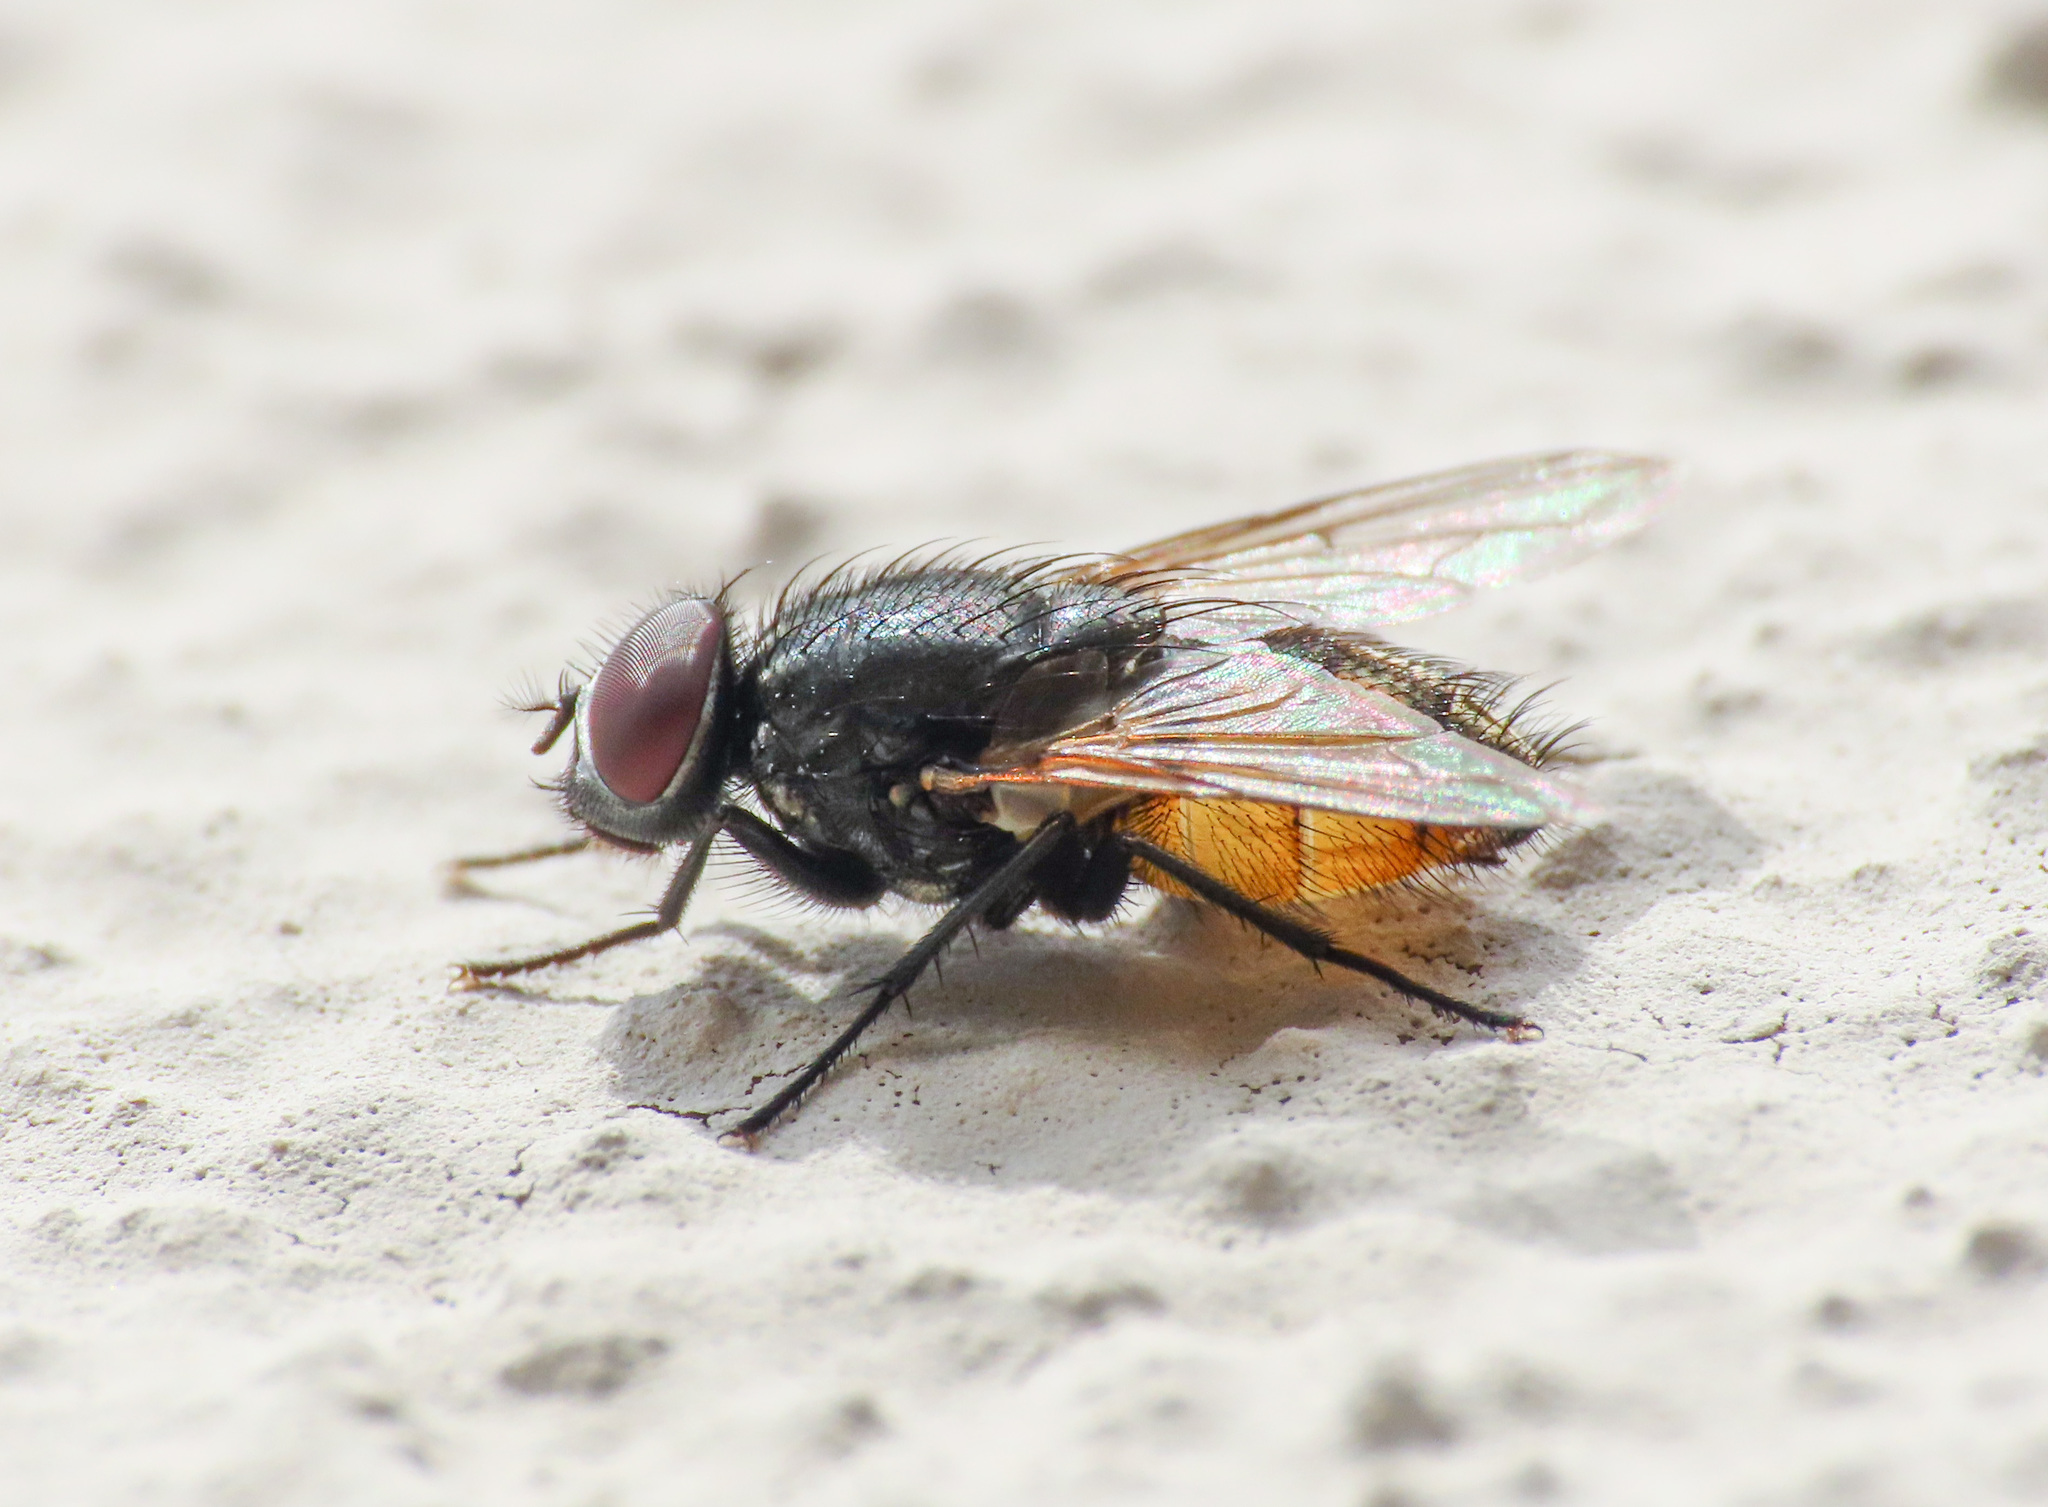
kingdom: Animalia
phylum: Arthropoda
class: Insecta
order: Diptera
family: Muscidae
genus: Musca
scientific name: Musca autumnalis
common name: Face fly
